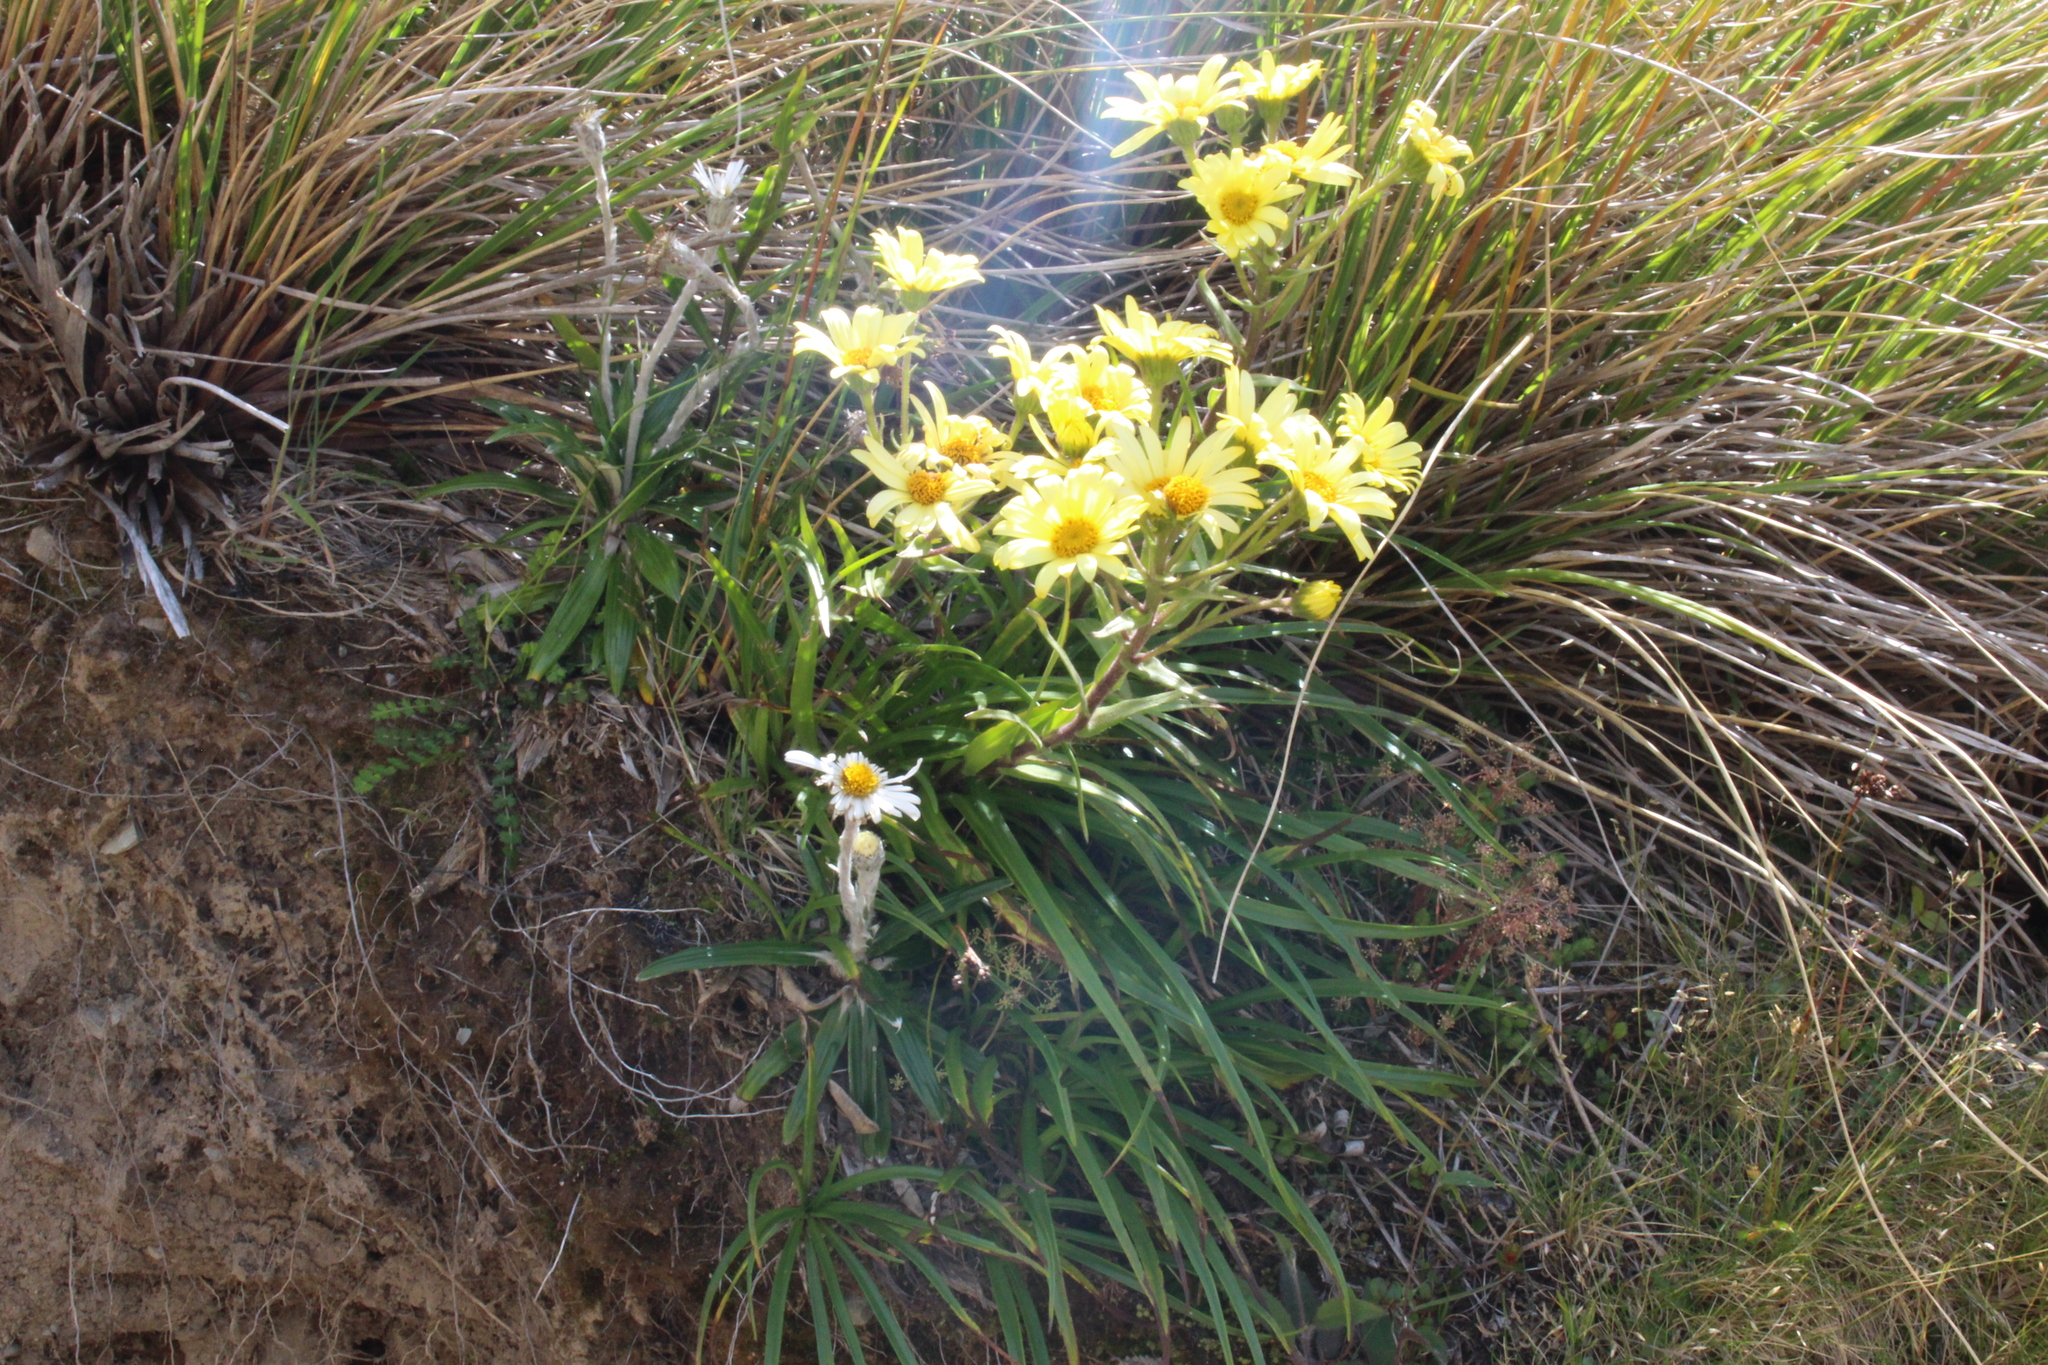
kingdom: Plantae
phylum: Tracheophyta
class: Magnoliopsida
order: Asterales
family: Asteraceae
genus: Dolichoglottis
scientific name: Dolichoglottis
